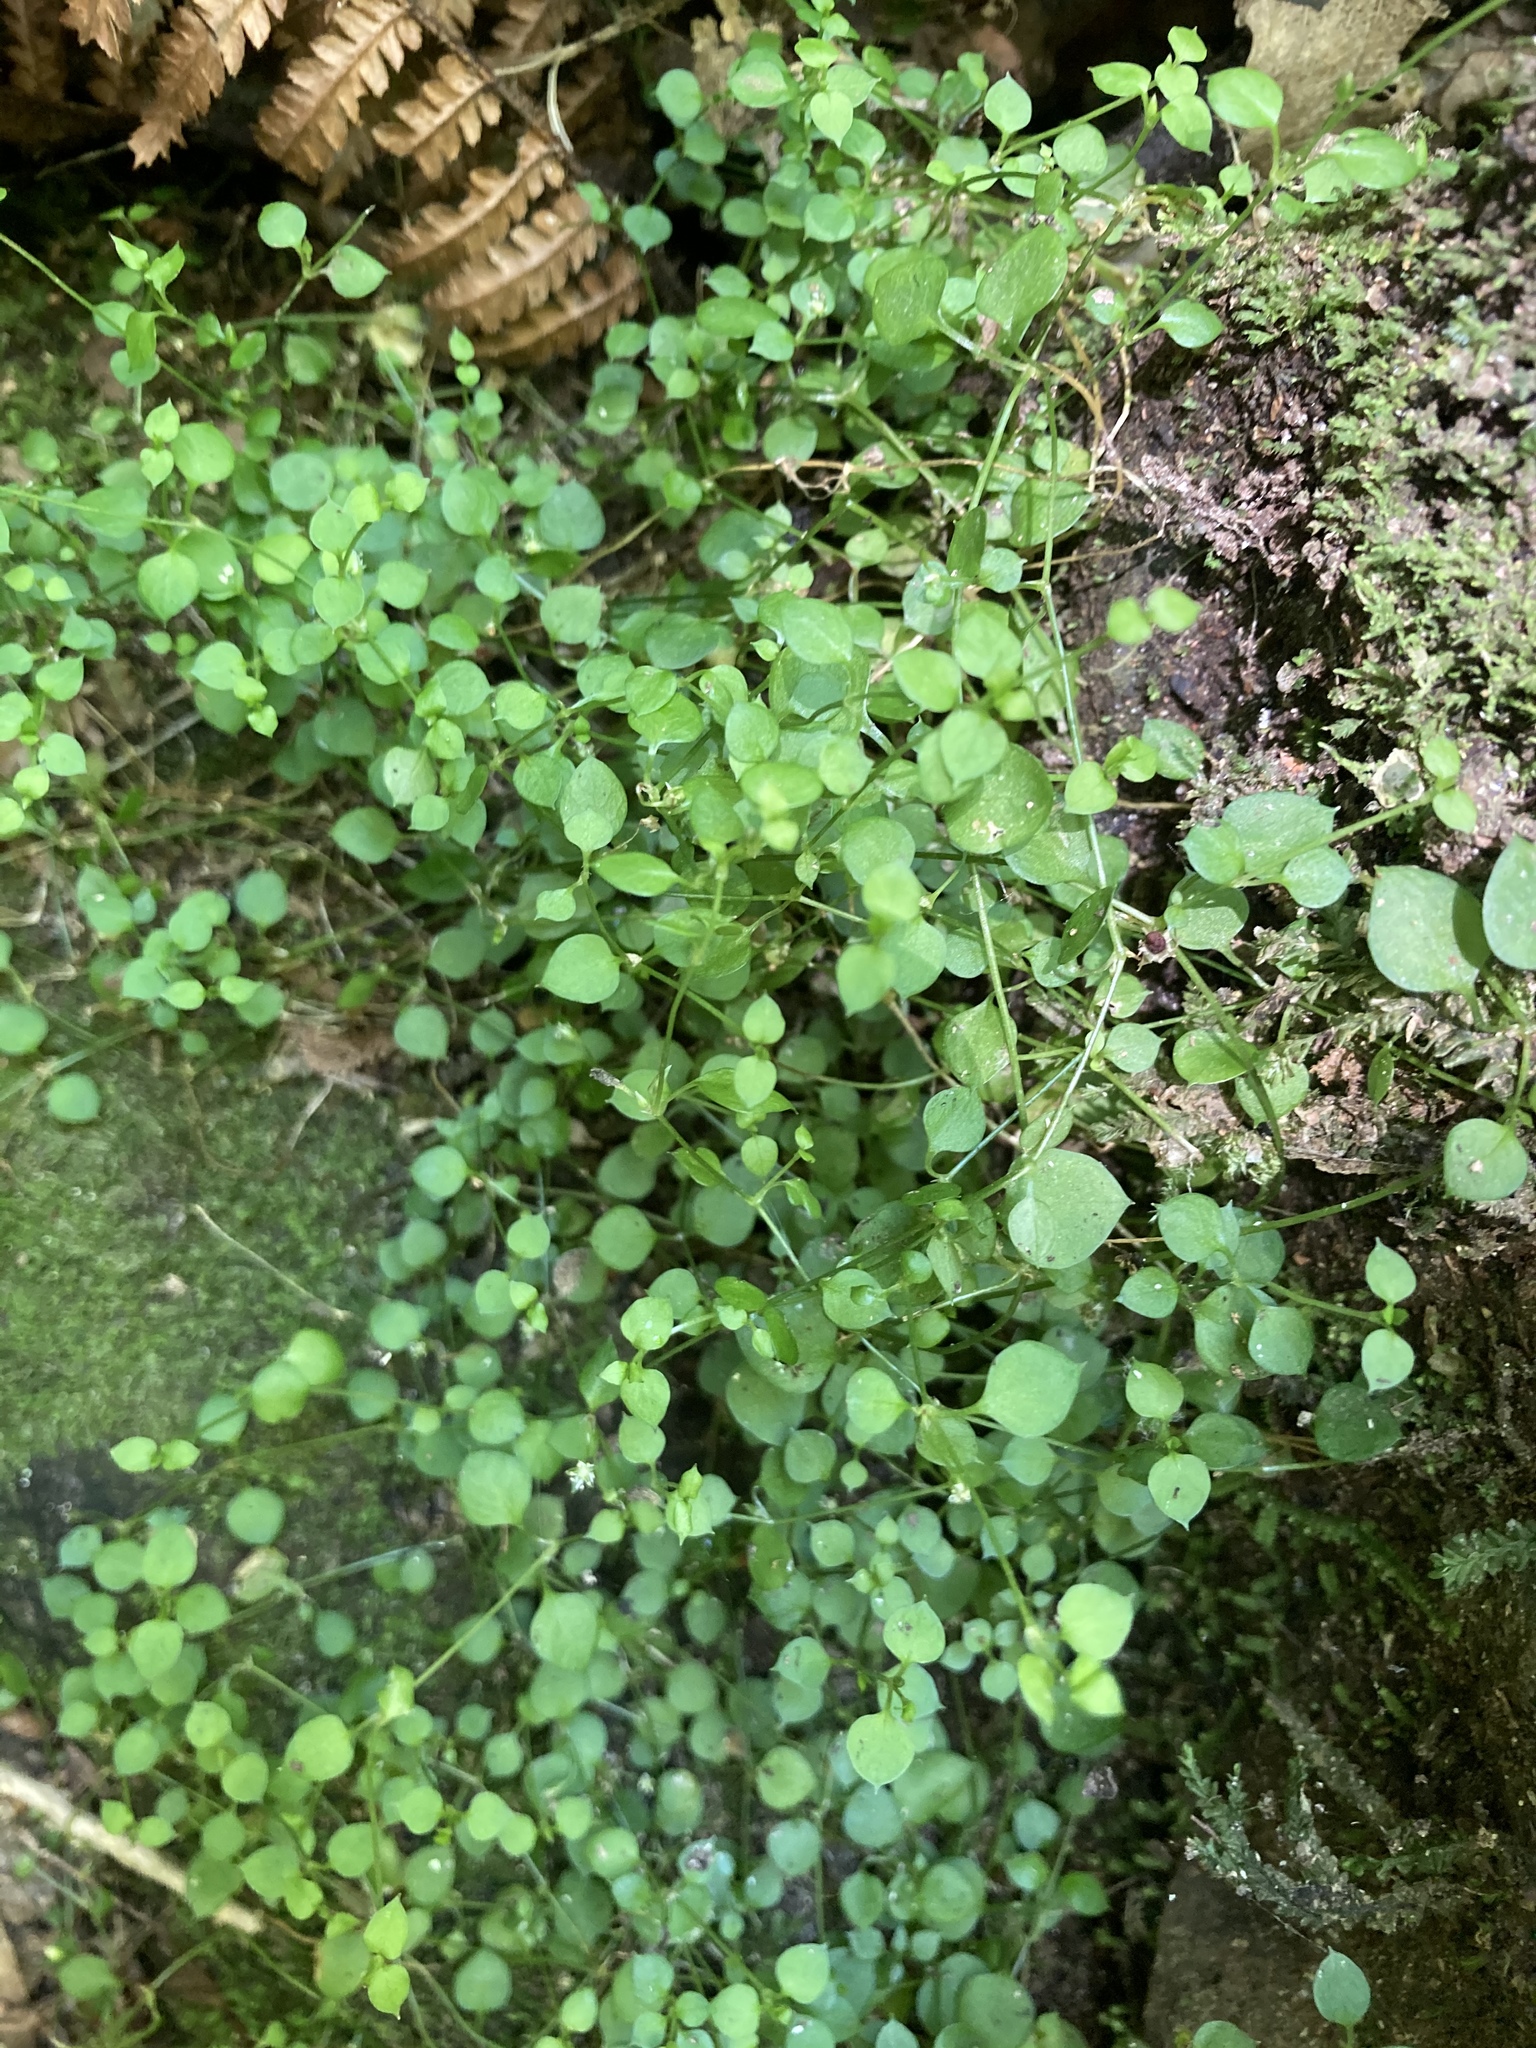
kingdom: Plantae
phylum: Tracheophyta
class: Magnoliopsida
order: Caryophyllales
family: Caryophyllaceae
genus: Stellaria
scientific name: Stellaria parviflora
